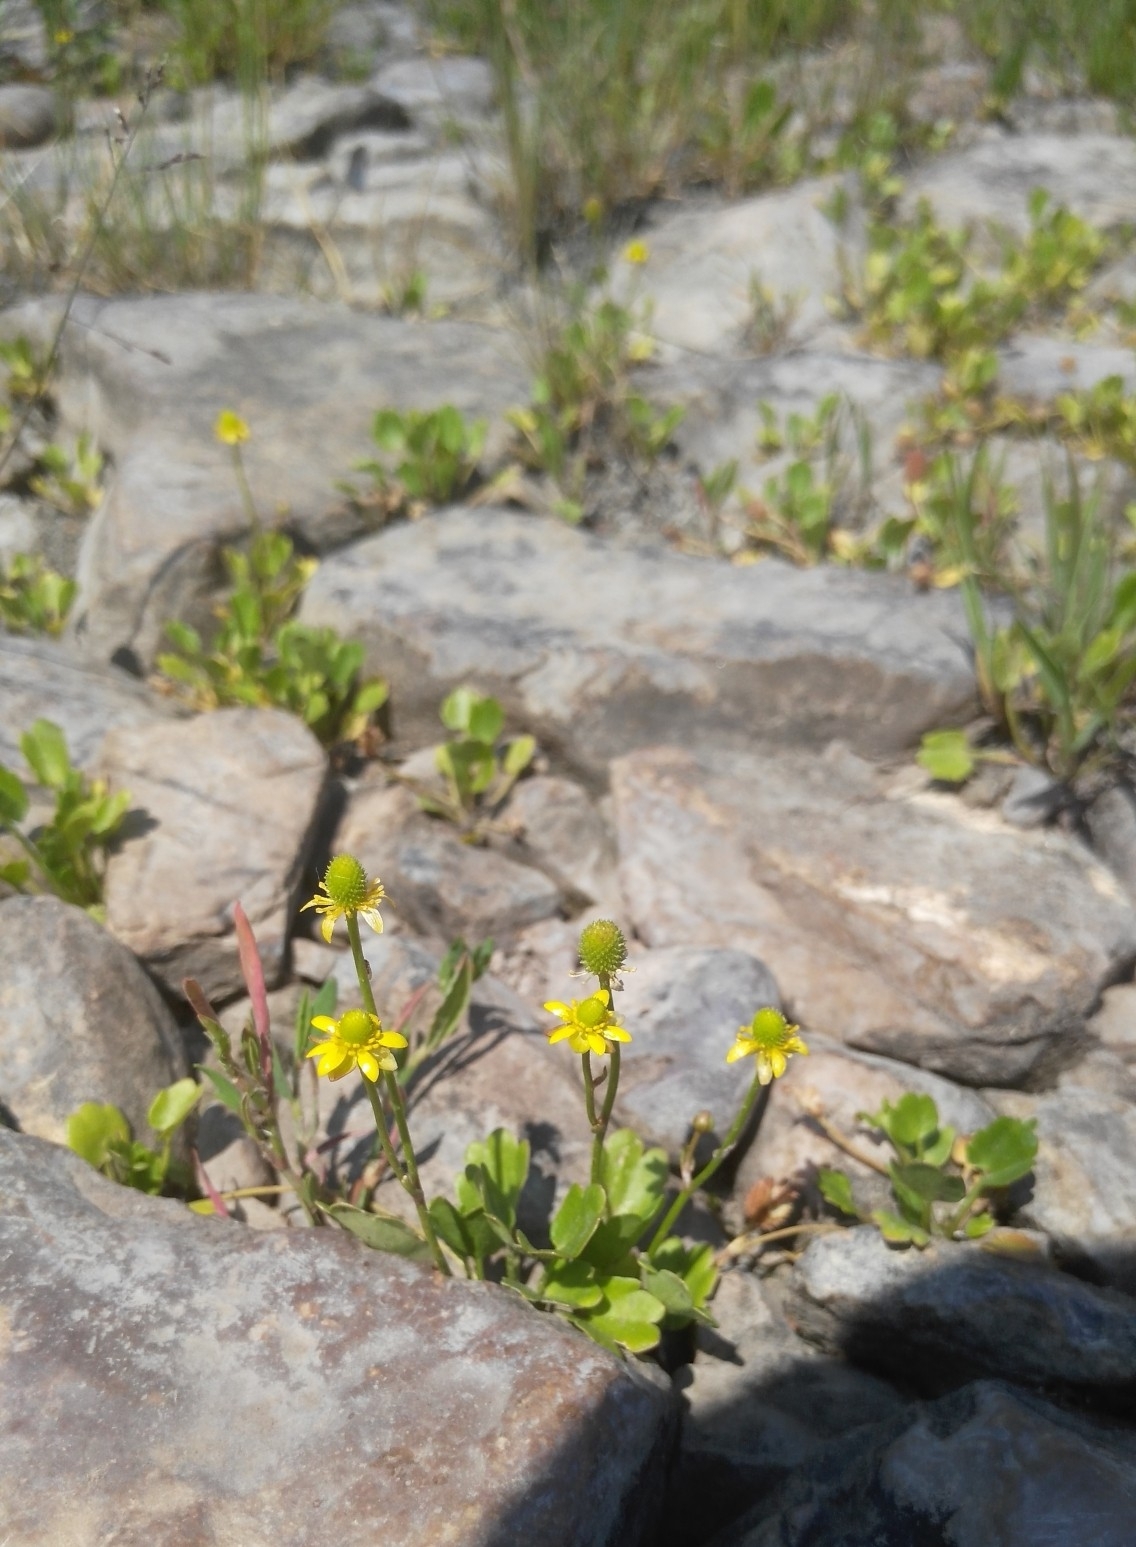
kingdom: Plantae
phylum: Tracheophyta
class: Magnoliopsida
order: Ranunculales
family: Ranunculaceae
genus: Halerpestes
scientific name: Halerpestes sarmentosus
